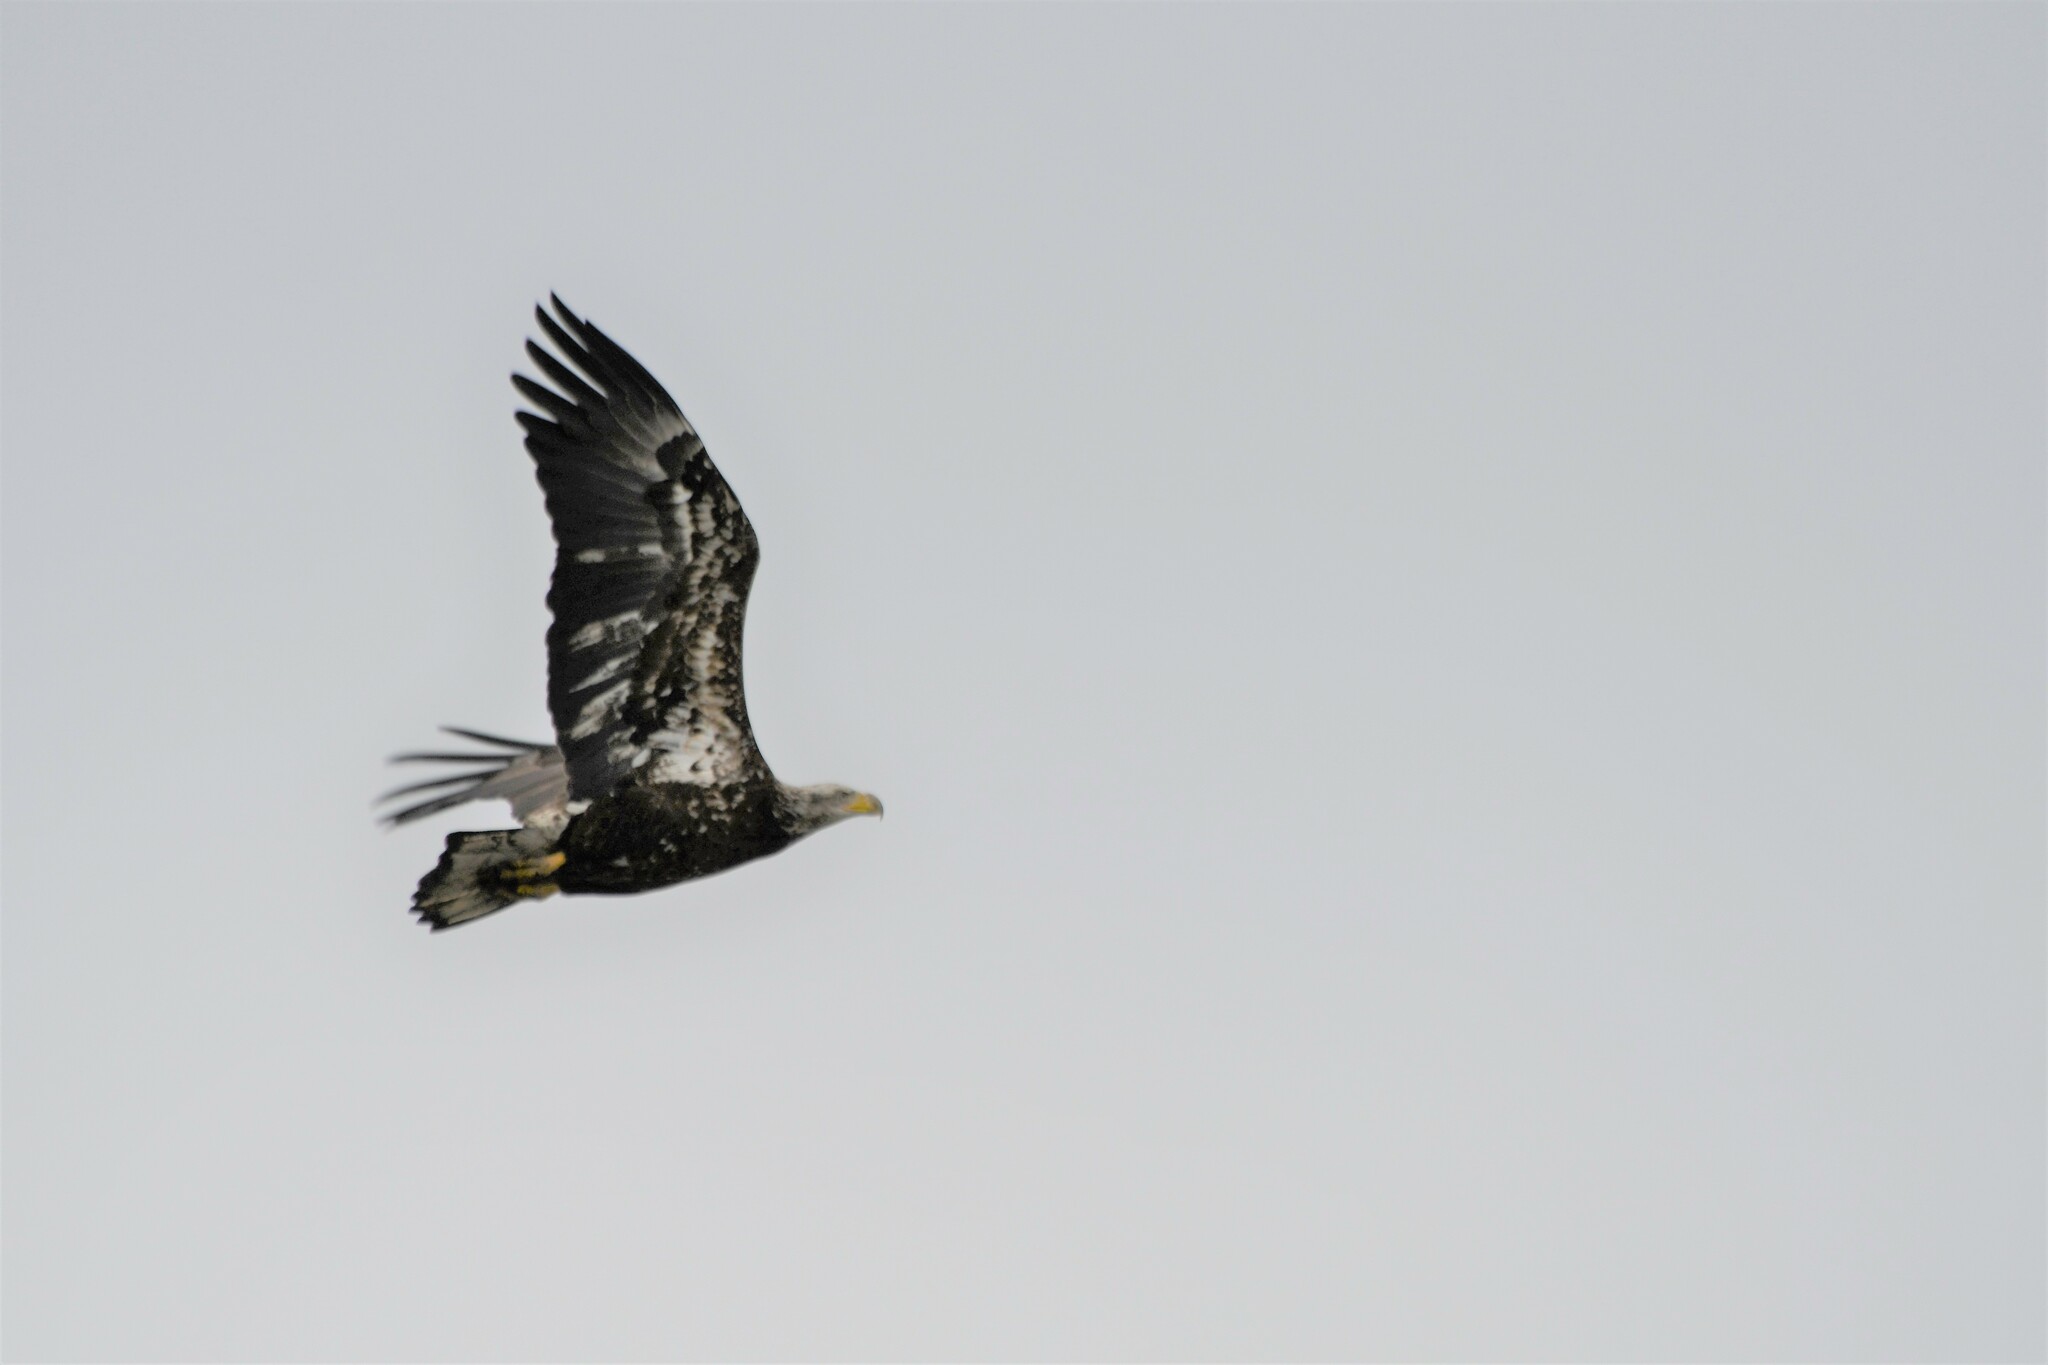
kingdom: Animalia
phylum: Chordata
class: Aves
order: Accipitriformes
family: Accipitridae
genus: Haliaeetus
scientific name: Haliaeetus leucocephalus
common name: Bald eagle
